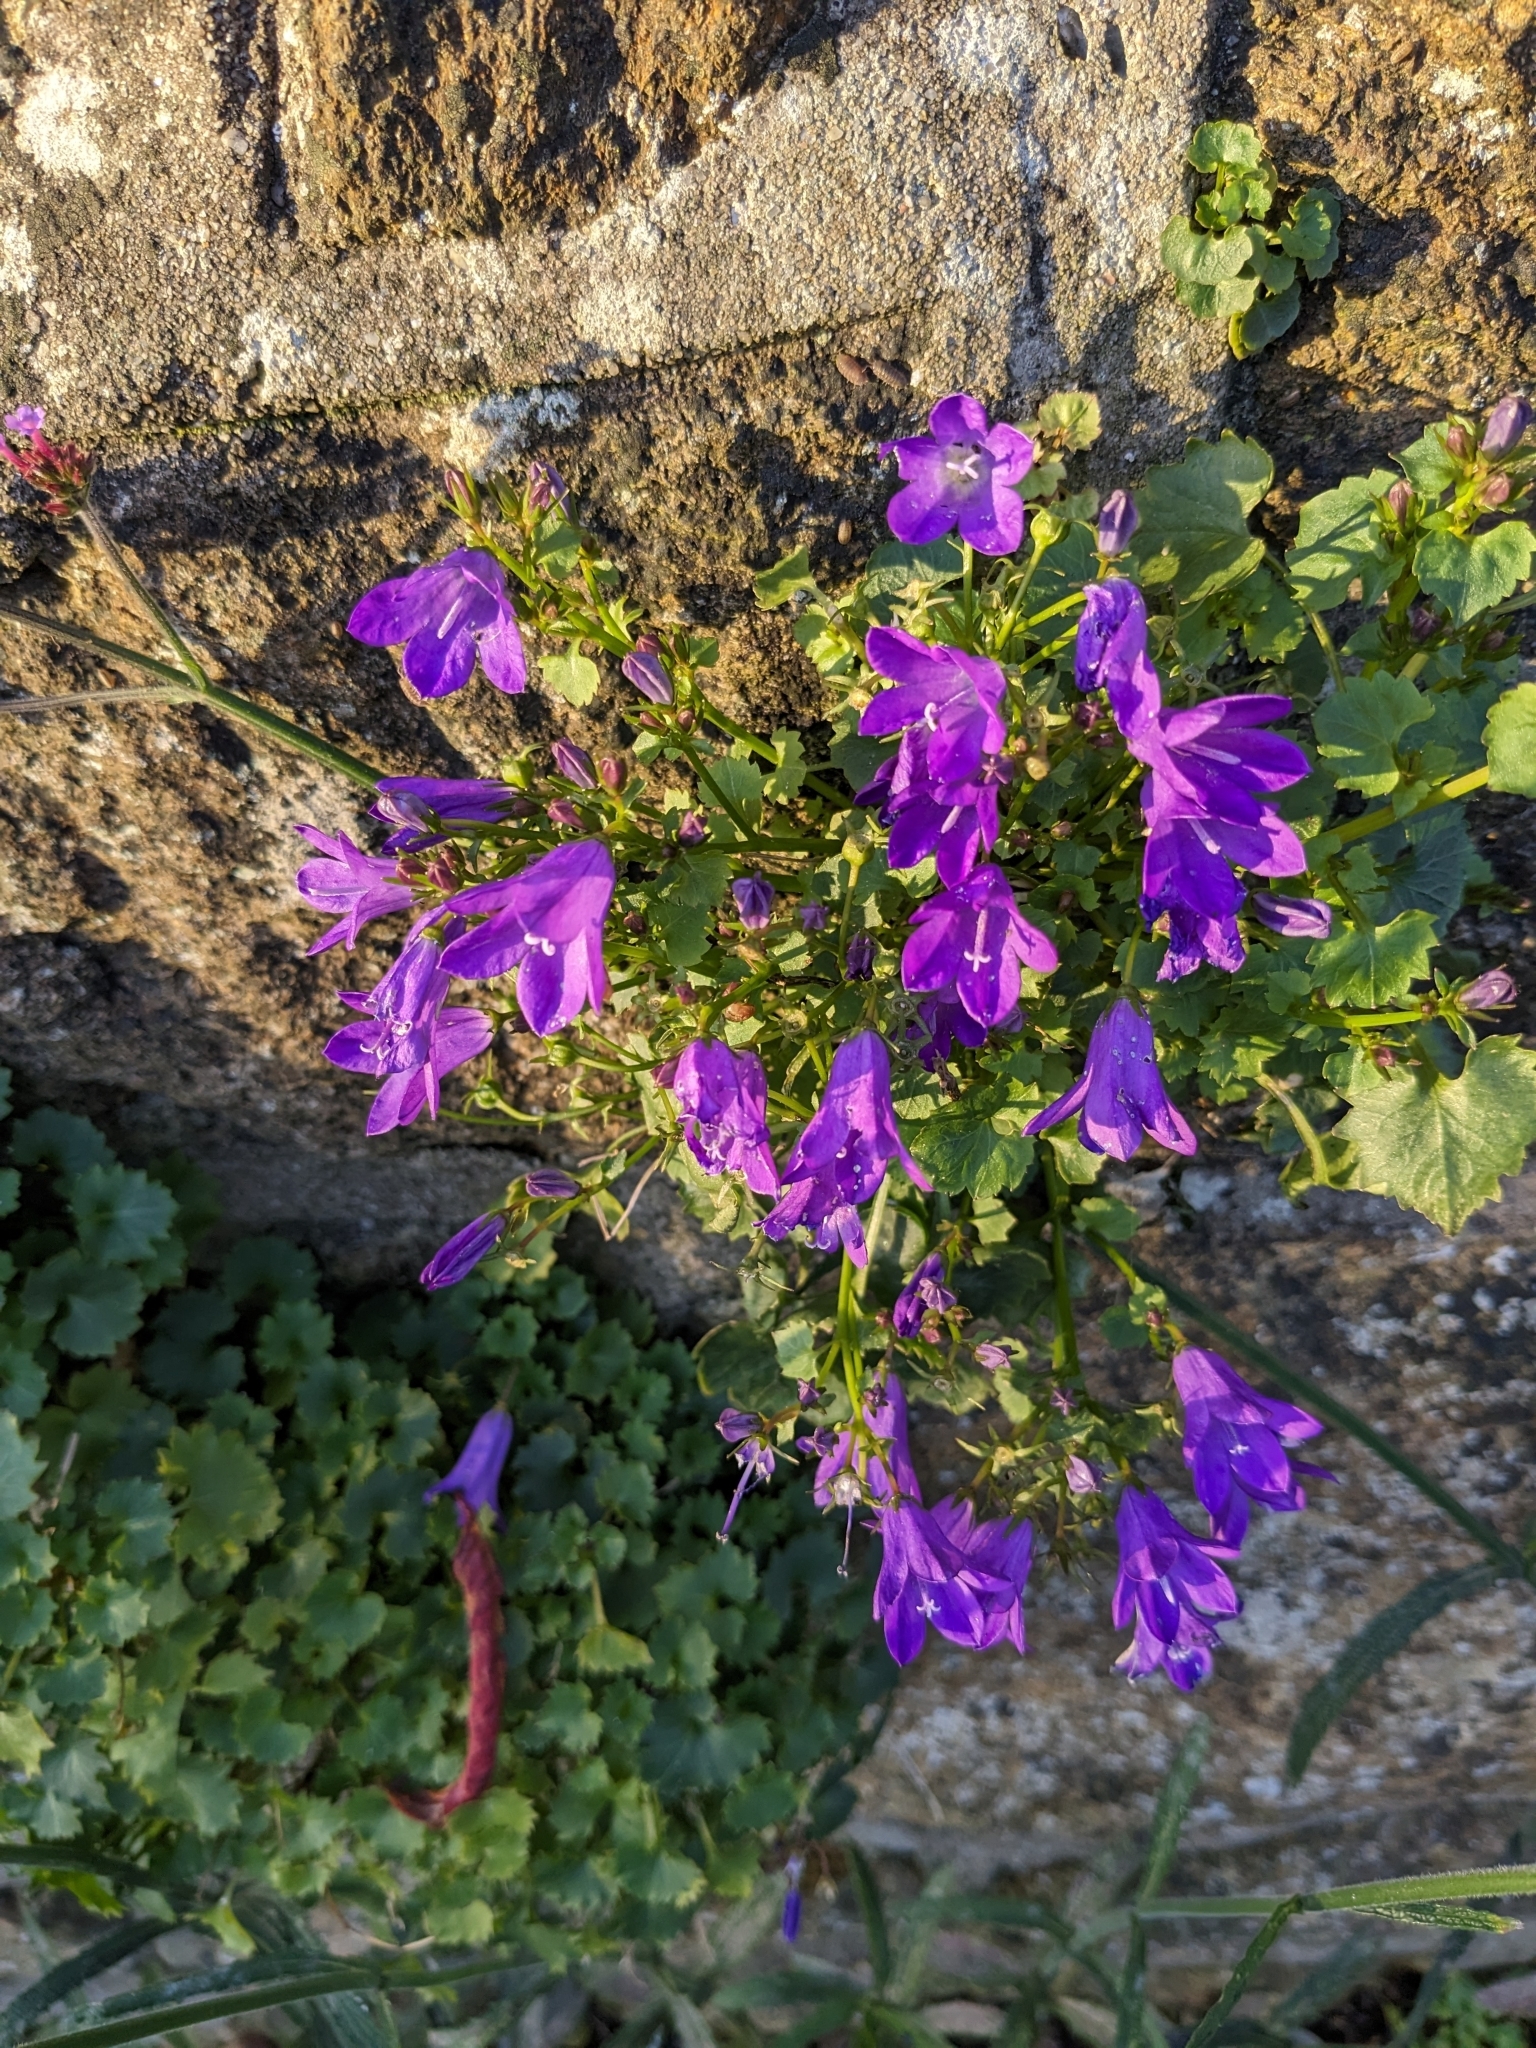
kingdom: Plantae
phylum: Tracheophyta
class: Magnoliopsida
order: Asterales
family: Campanulaceae
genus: Campanula
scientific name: Campanula portenschlagiana
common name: Adria bellflower
